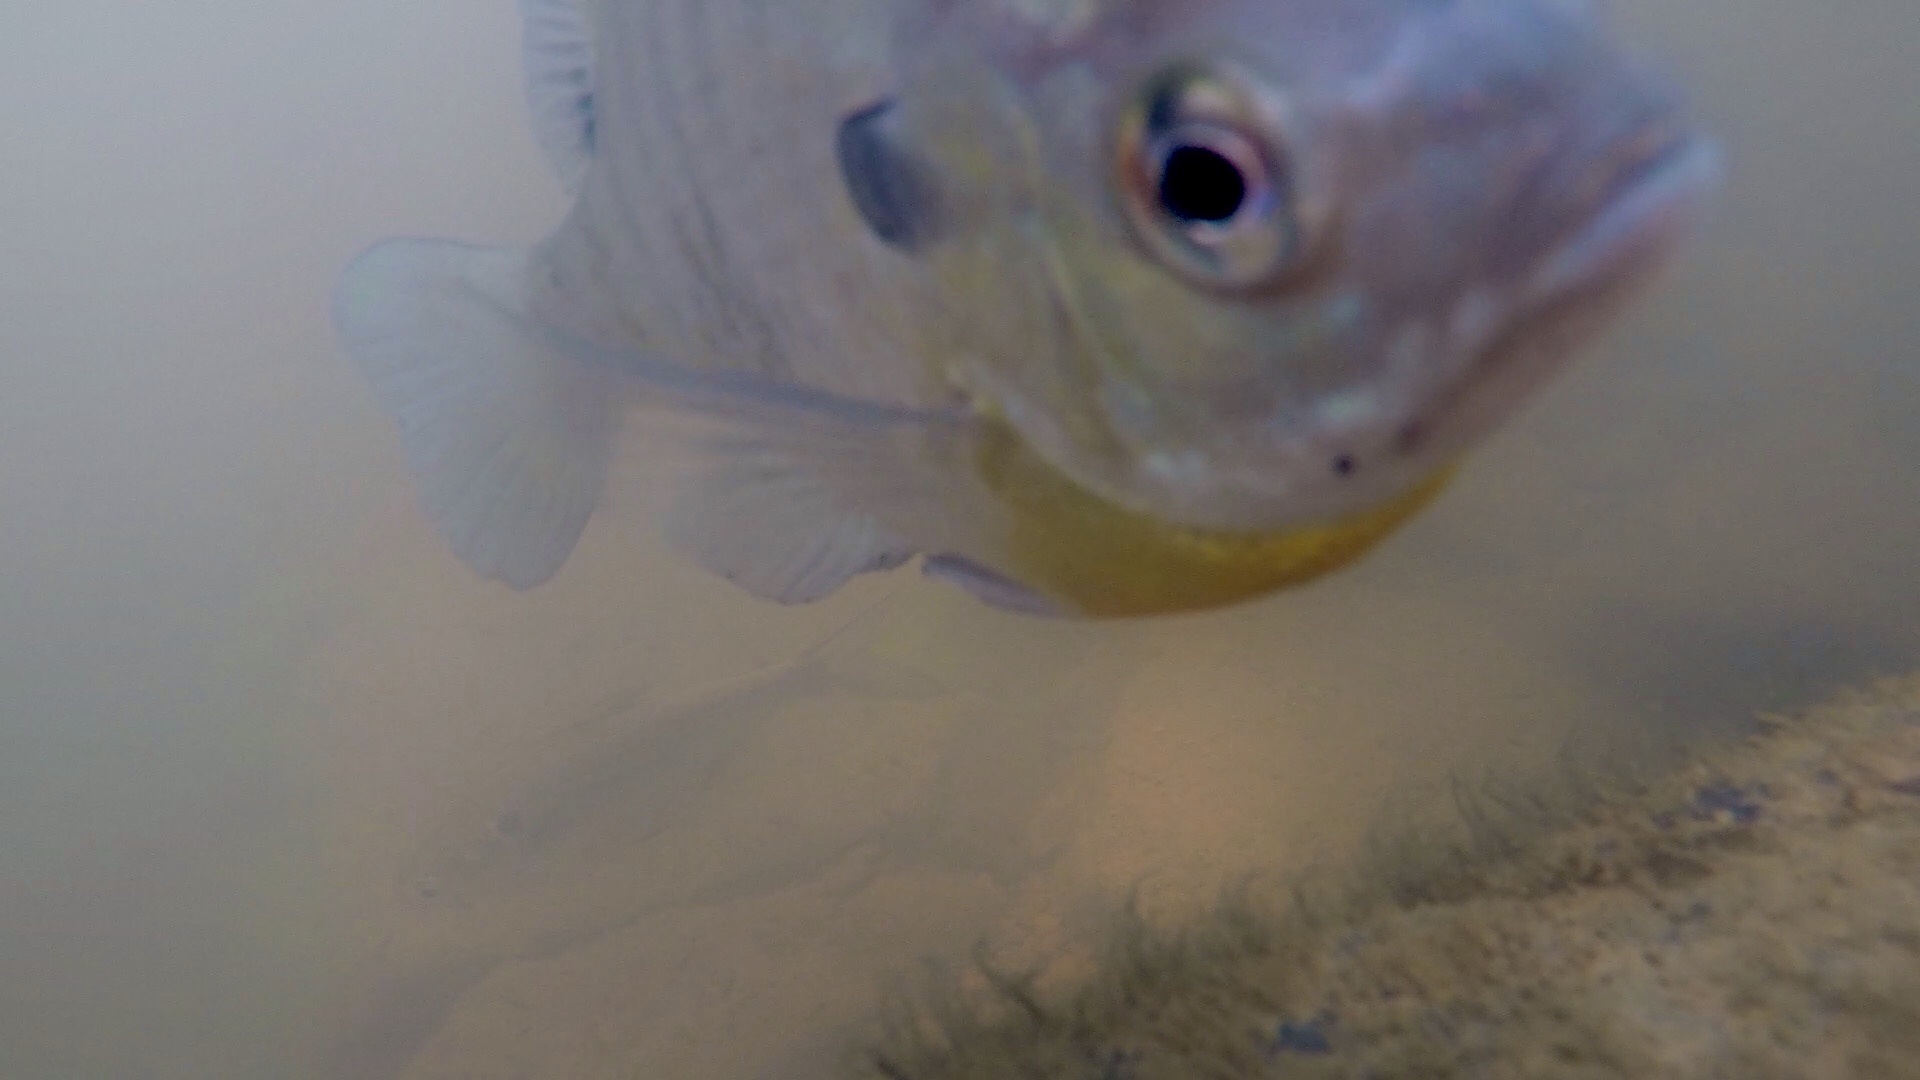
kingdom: Animalia
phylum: Chordata
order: Perciformes
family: Centrarchidae
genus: Lepomis
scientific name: Lepomis macrochirus
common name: Bluegill
